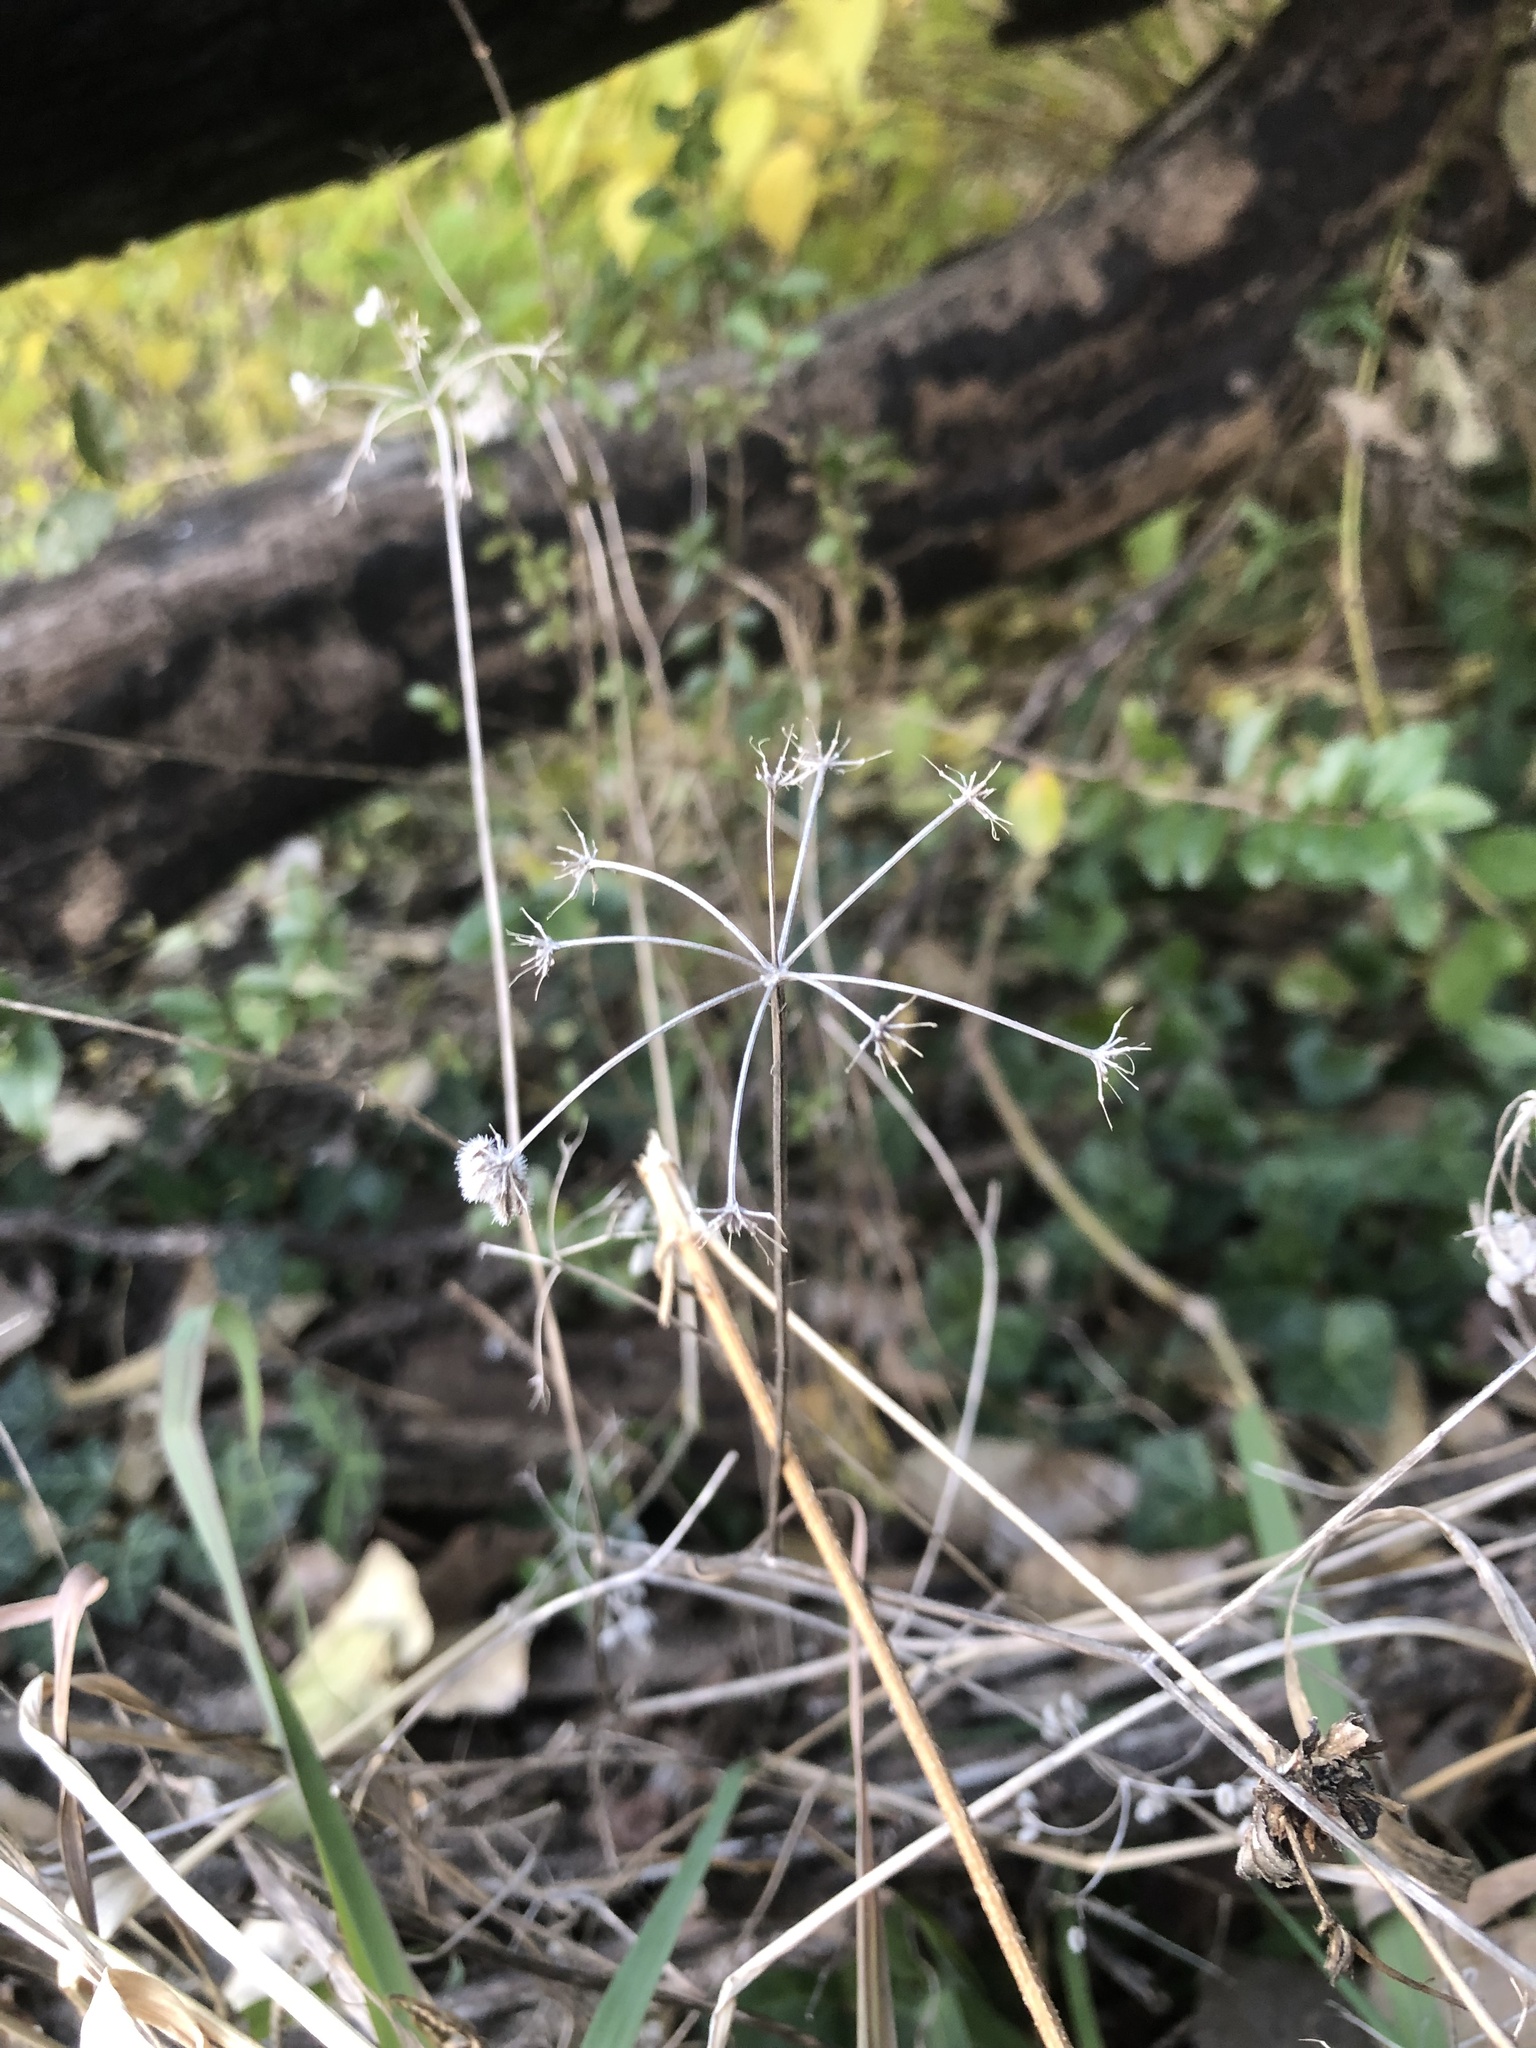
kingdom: Plantae
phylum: Tracheophyta
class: Magnoliopsida
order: Apiales
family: Apiaceae
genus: Torilis
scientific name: Torilis arvensis
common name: Spreading hedge-parsley
